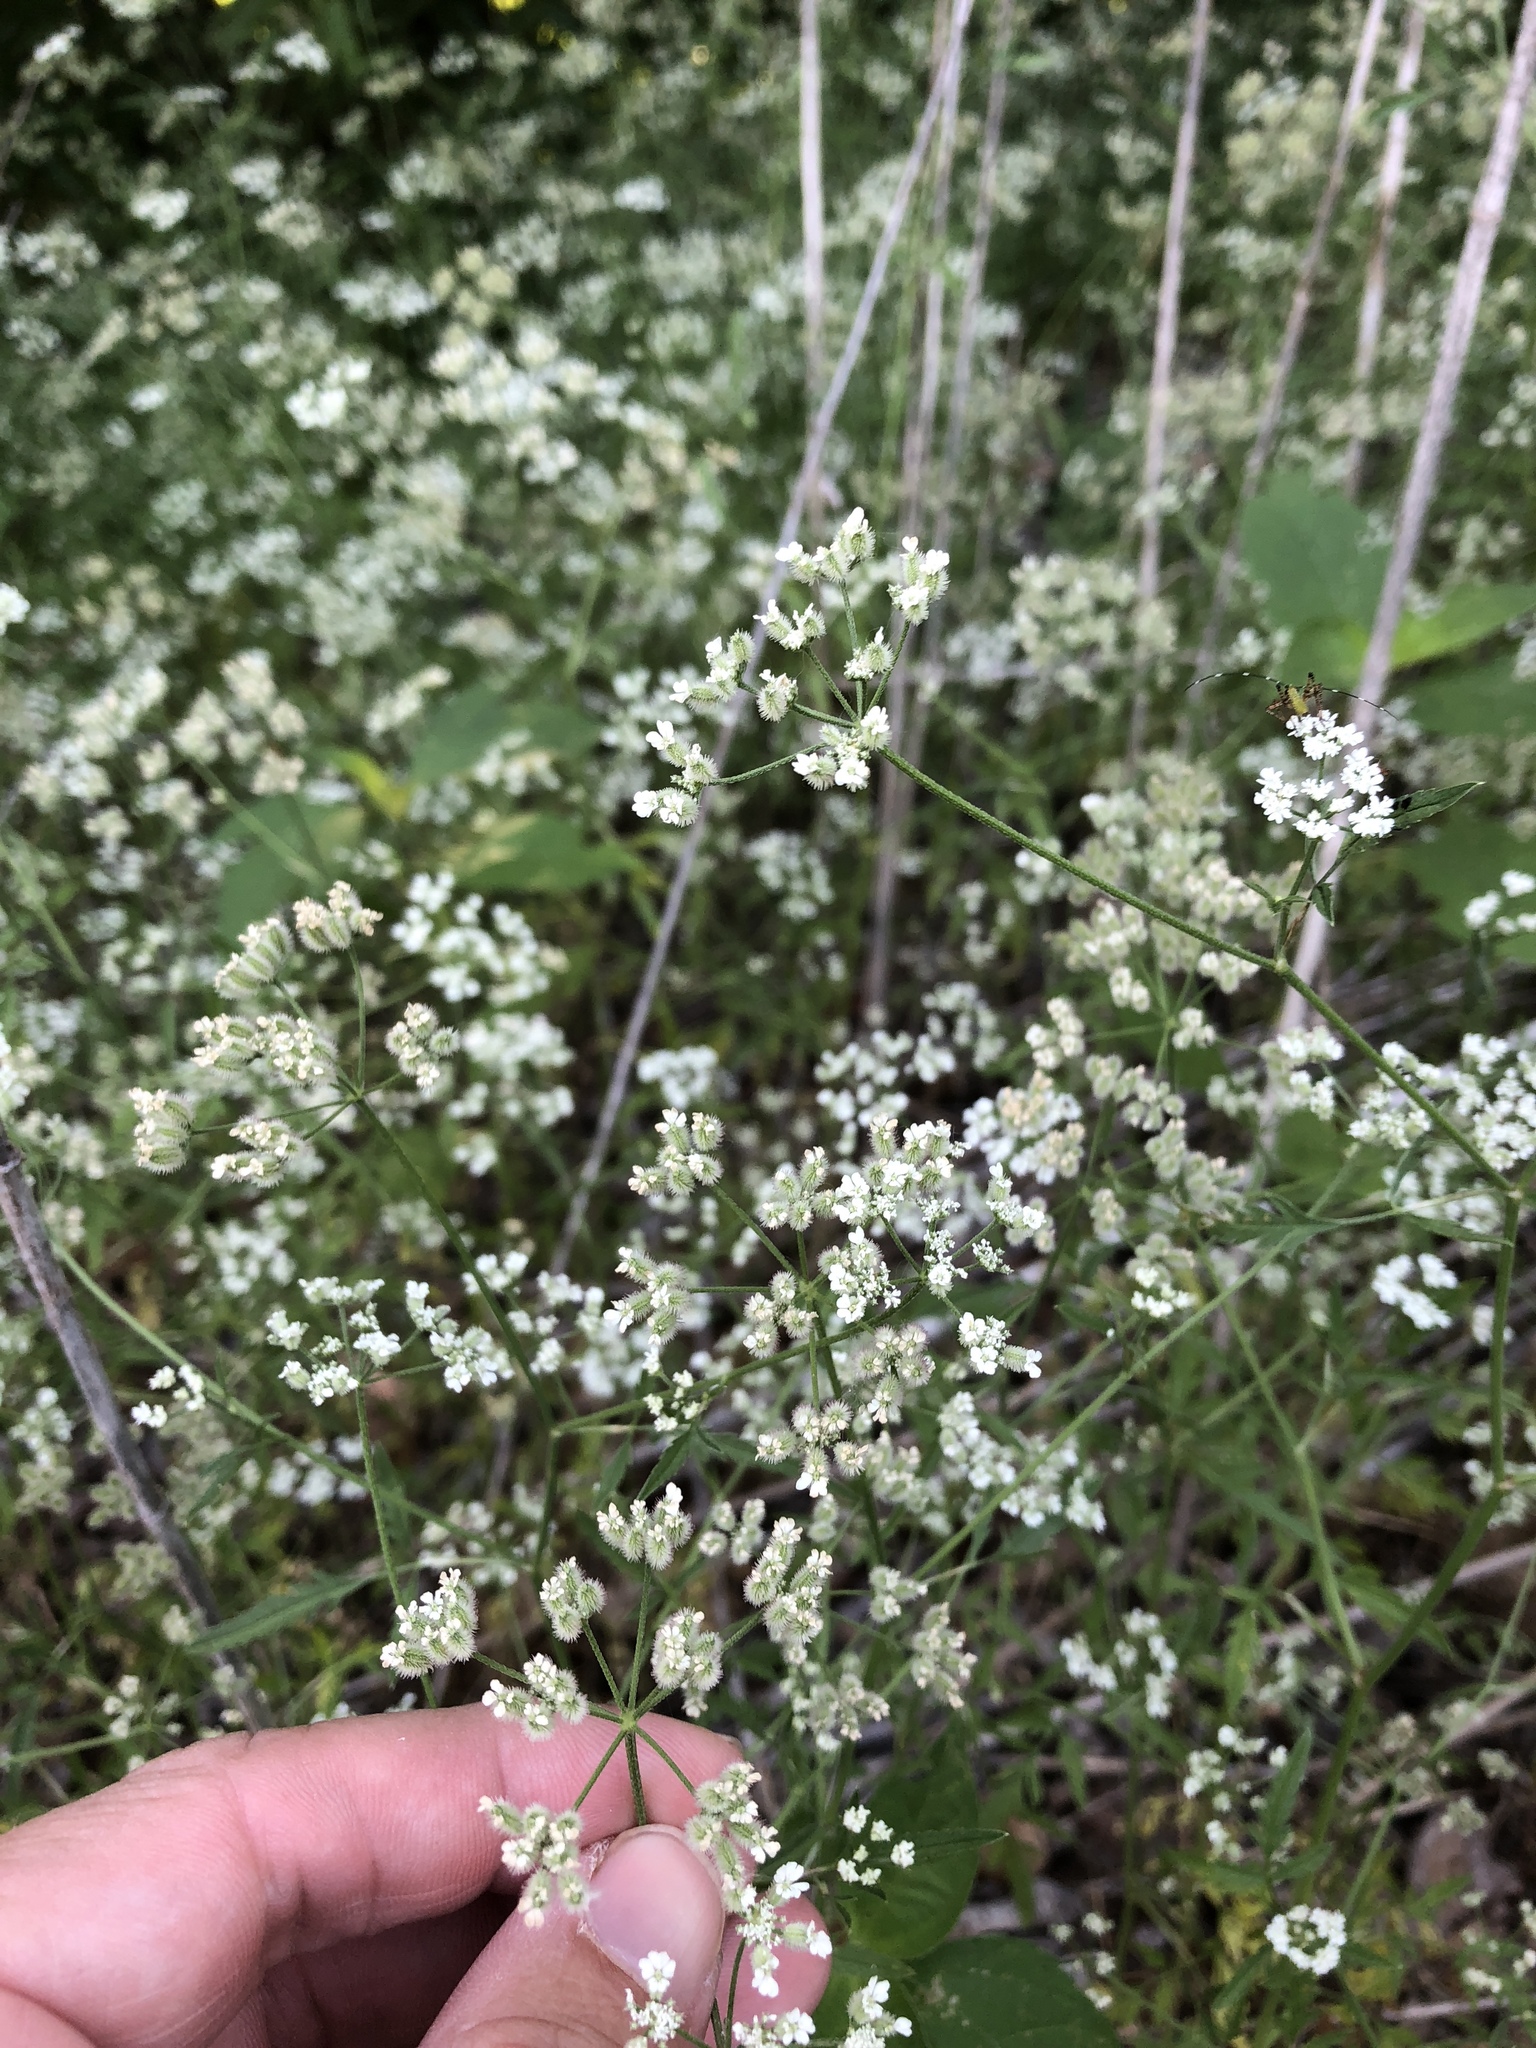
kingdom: Plantae
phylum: Tracheophyta
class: Magnoliopsida
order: Apiales
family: Apiaceae
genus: Torilis
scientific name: Torilis arvensis
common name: Spreading hedge-parsley
